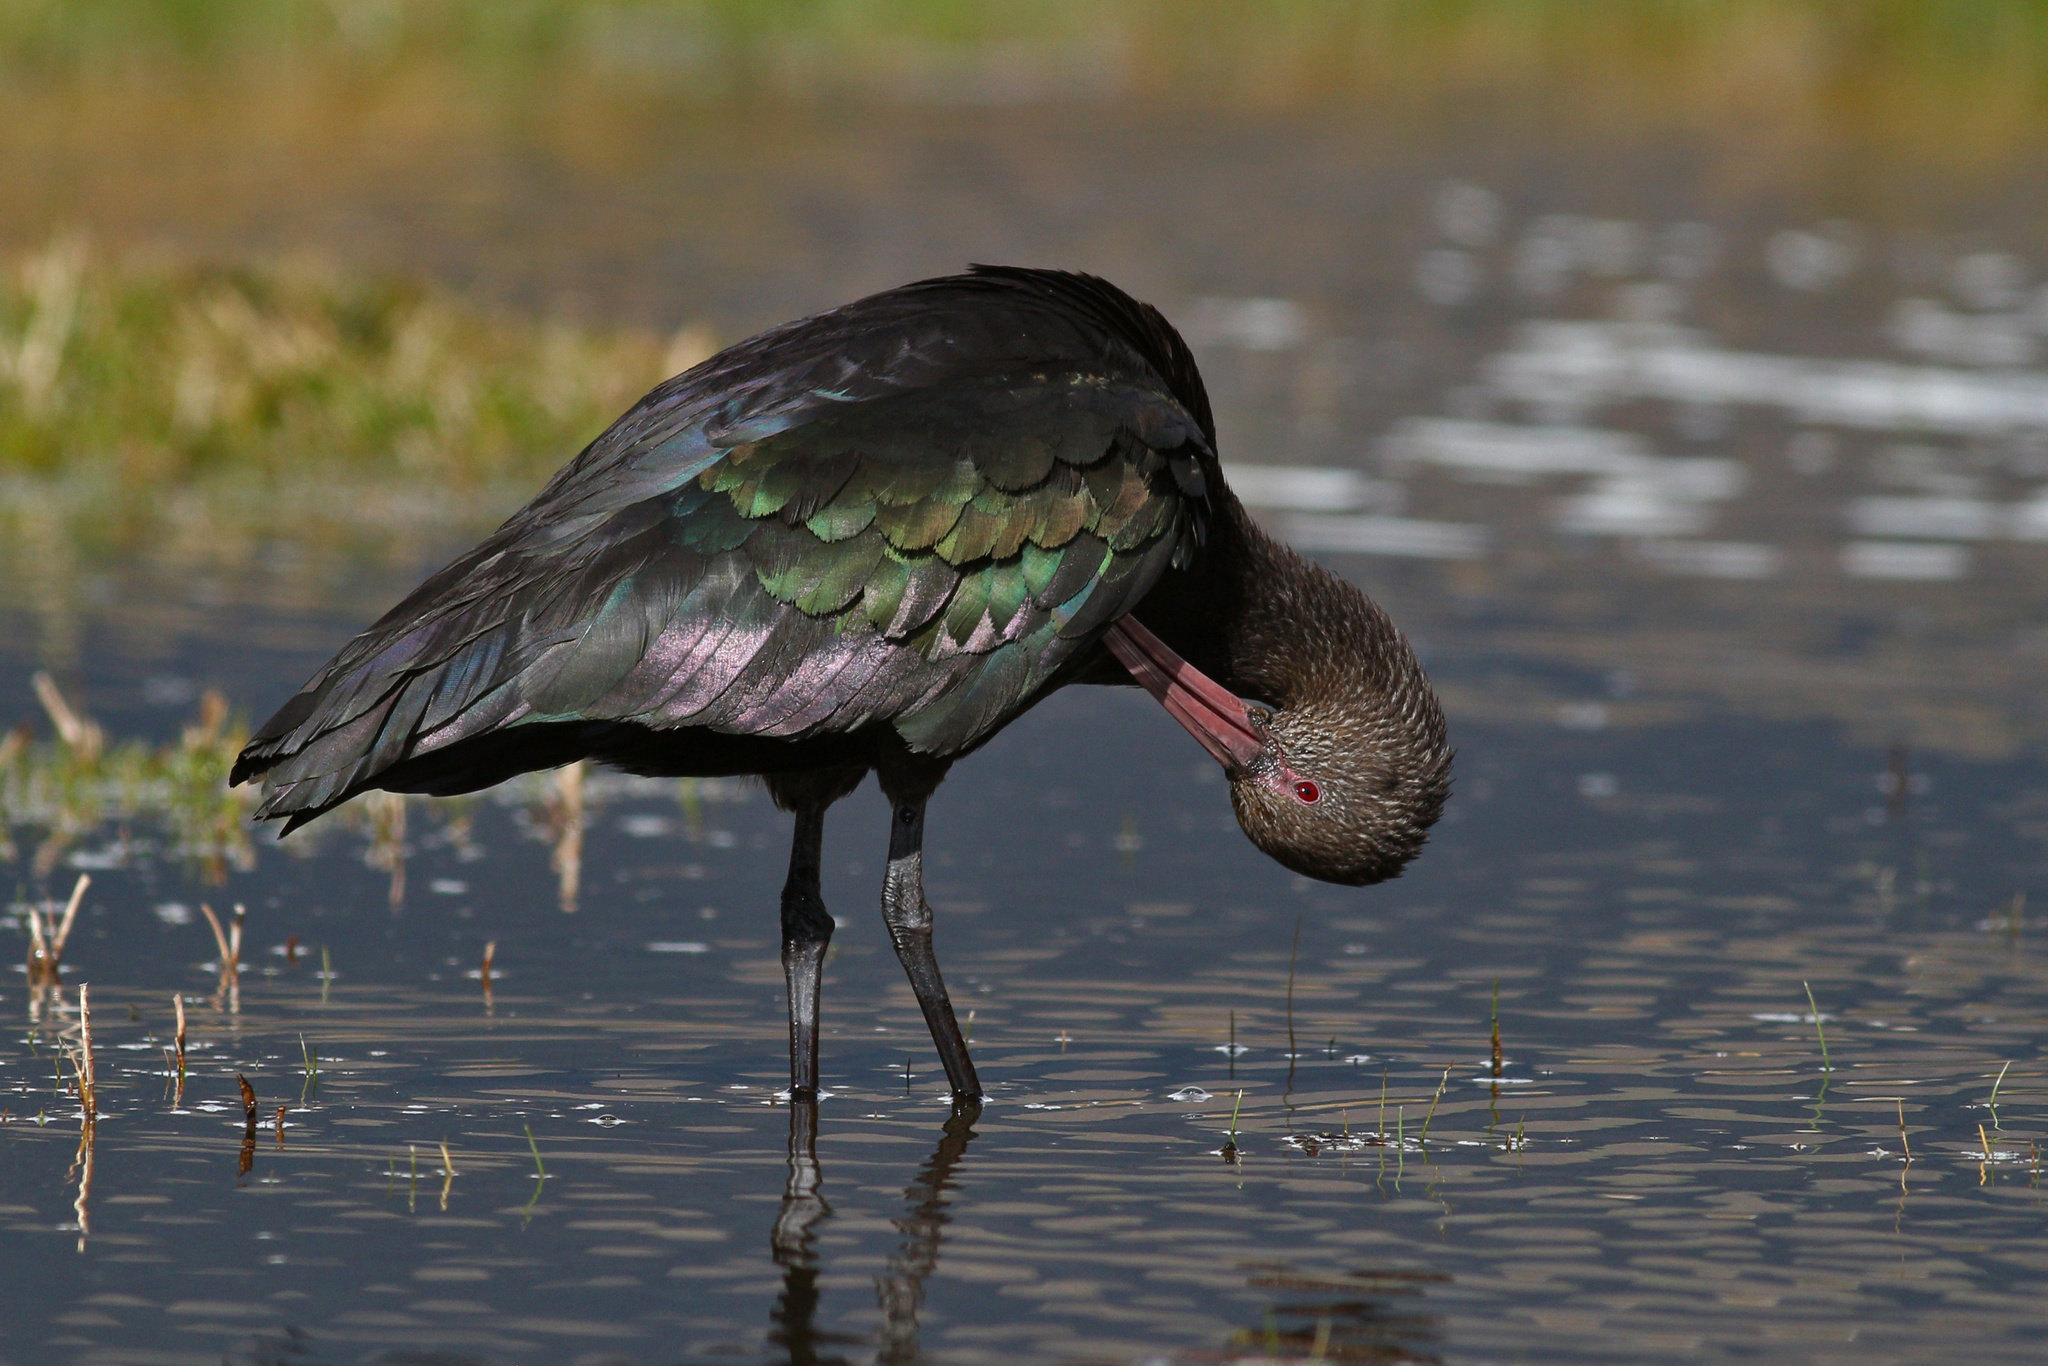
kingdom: Animalia
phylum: Chordata
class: Aves
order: Pelecaniformes
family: Threskiornithidae
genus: Plegadis
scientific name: Plegadis ridgwayi
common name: Puna ibis
